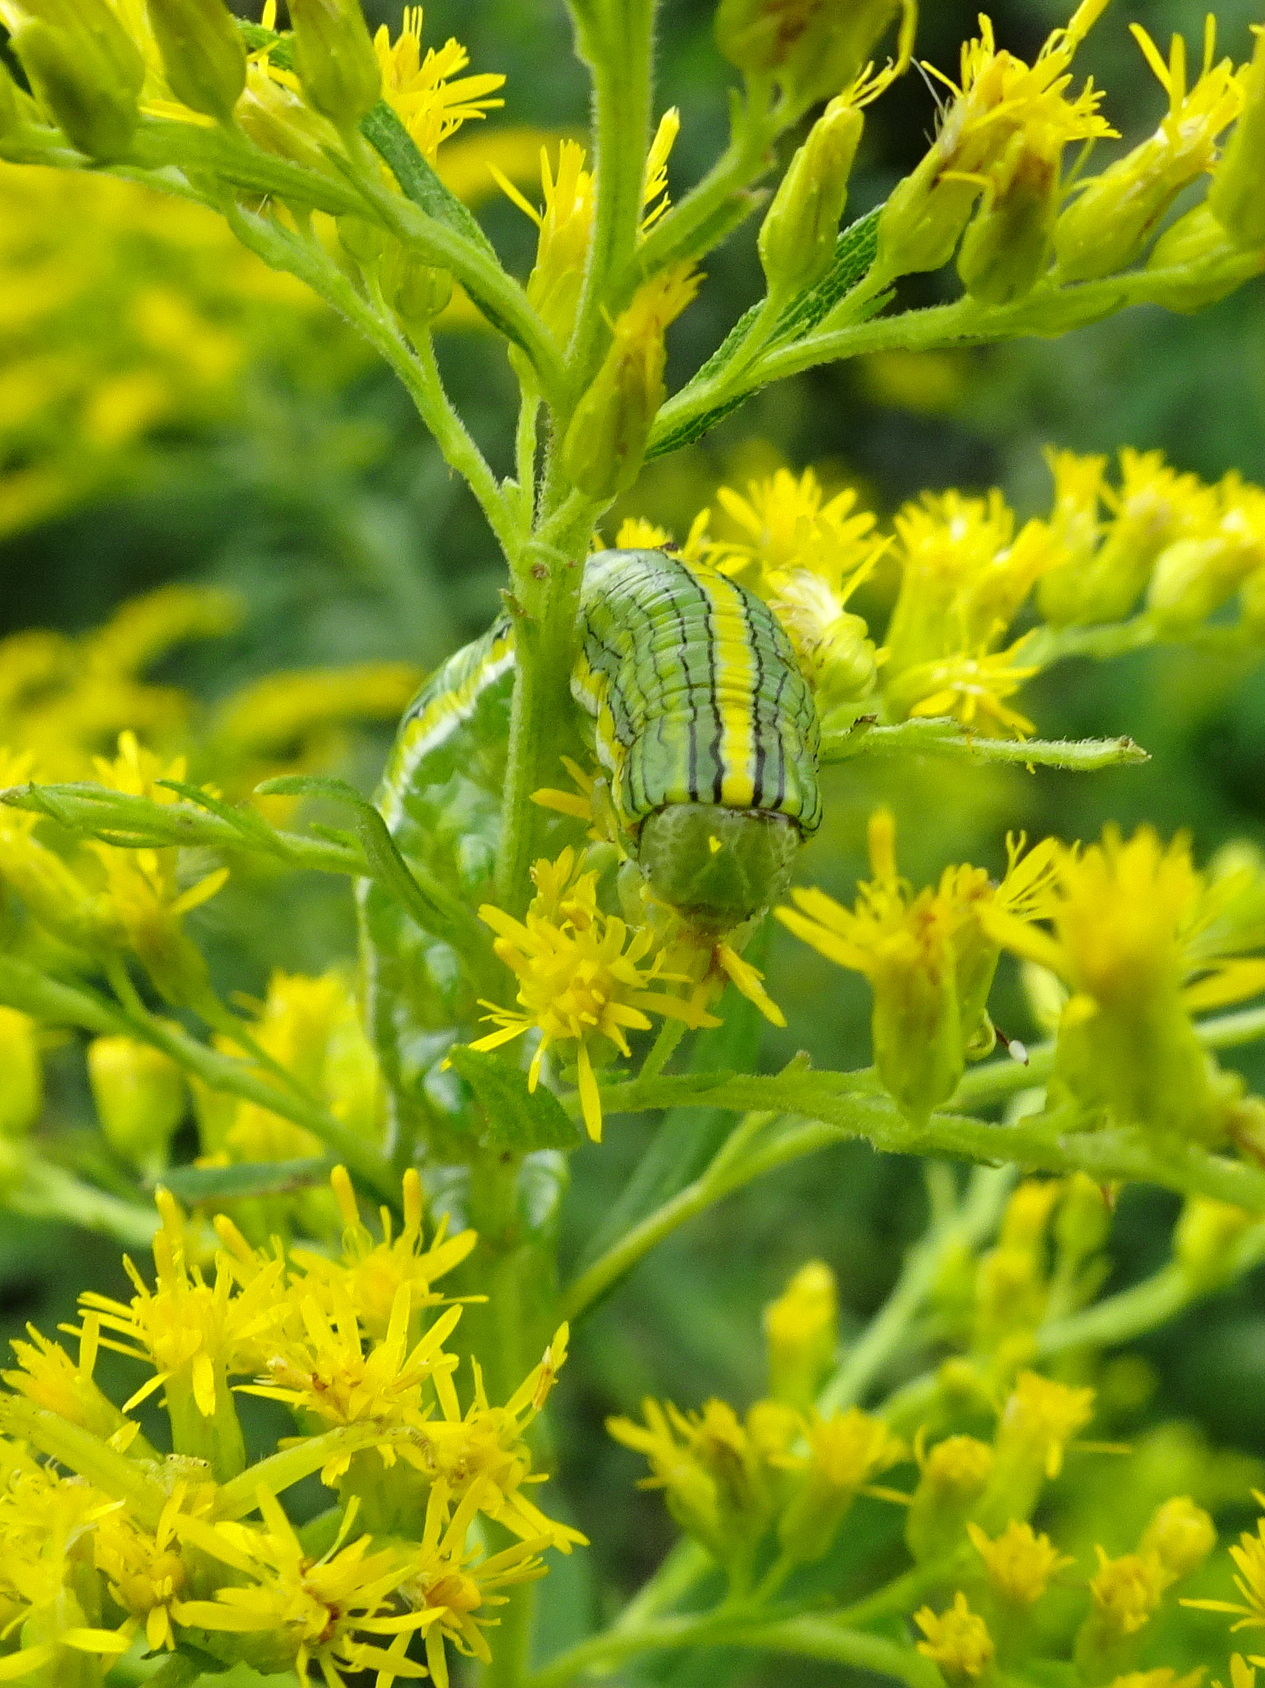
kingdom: Animalia
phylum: Arthropoda
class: Insecta
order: Lepidoptera
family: Noctuidae
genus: Cucullia
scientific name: Cucullia asteroides
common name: Asteroid moth
